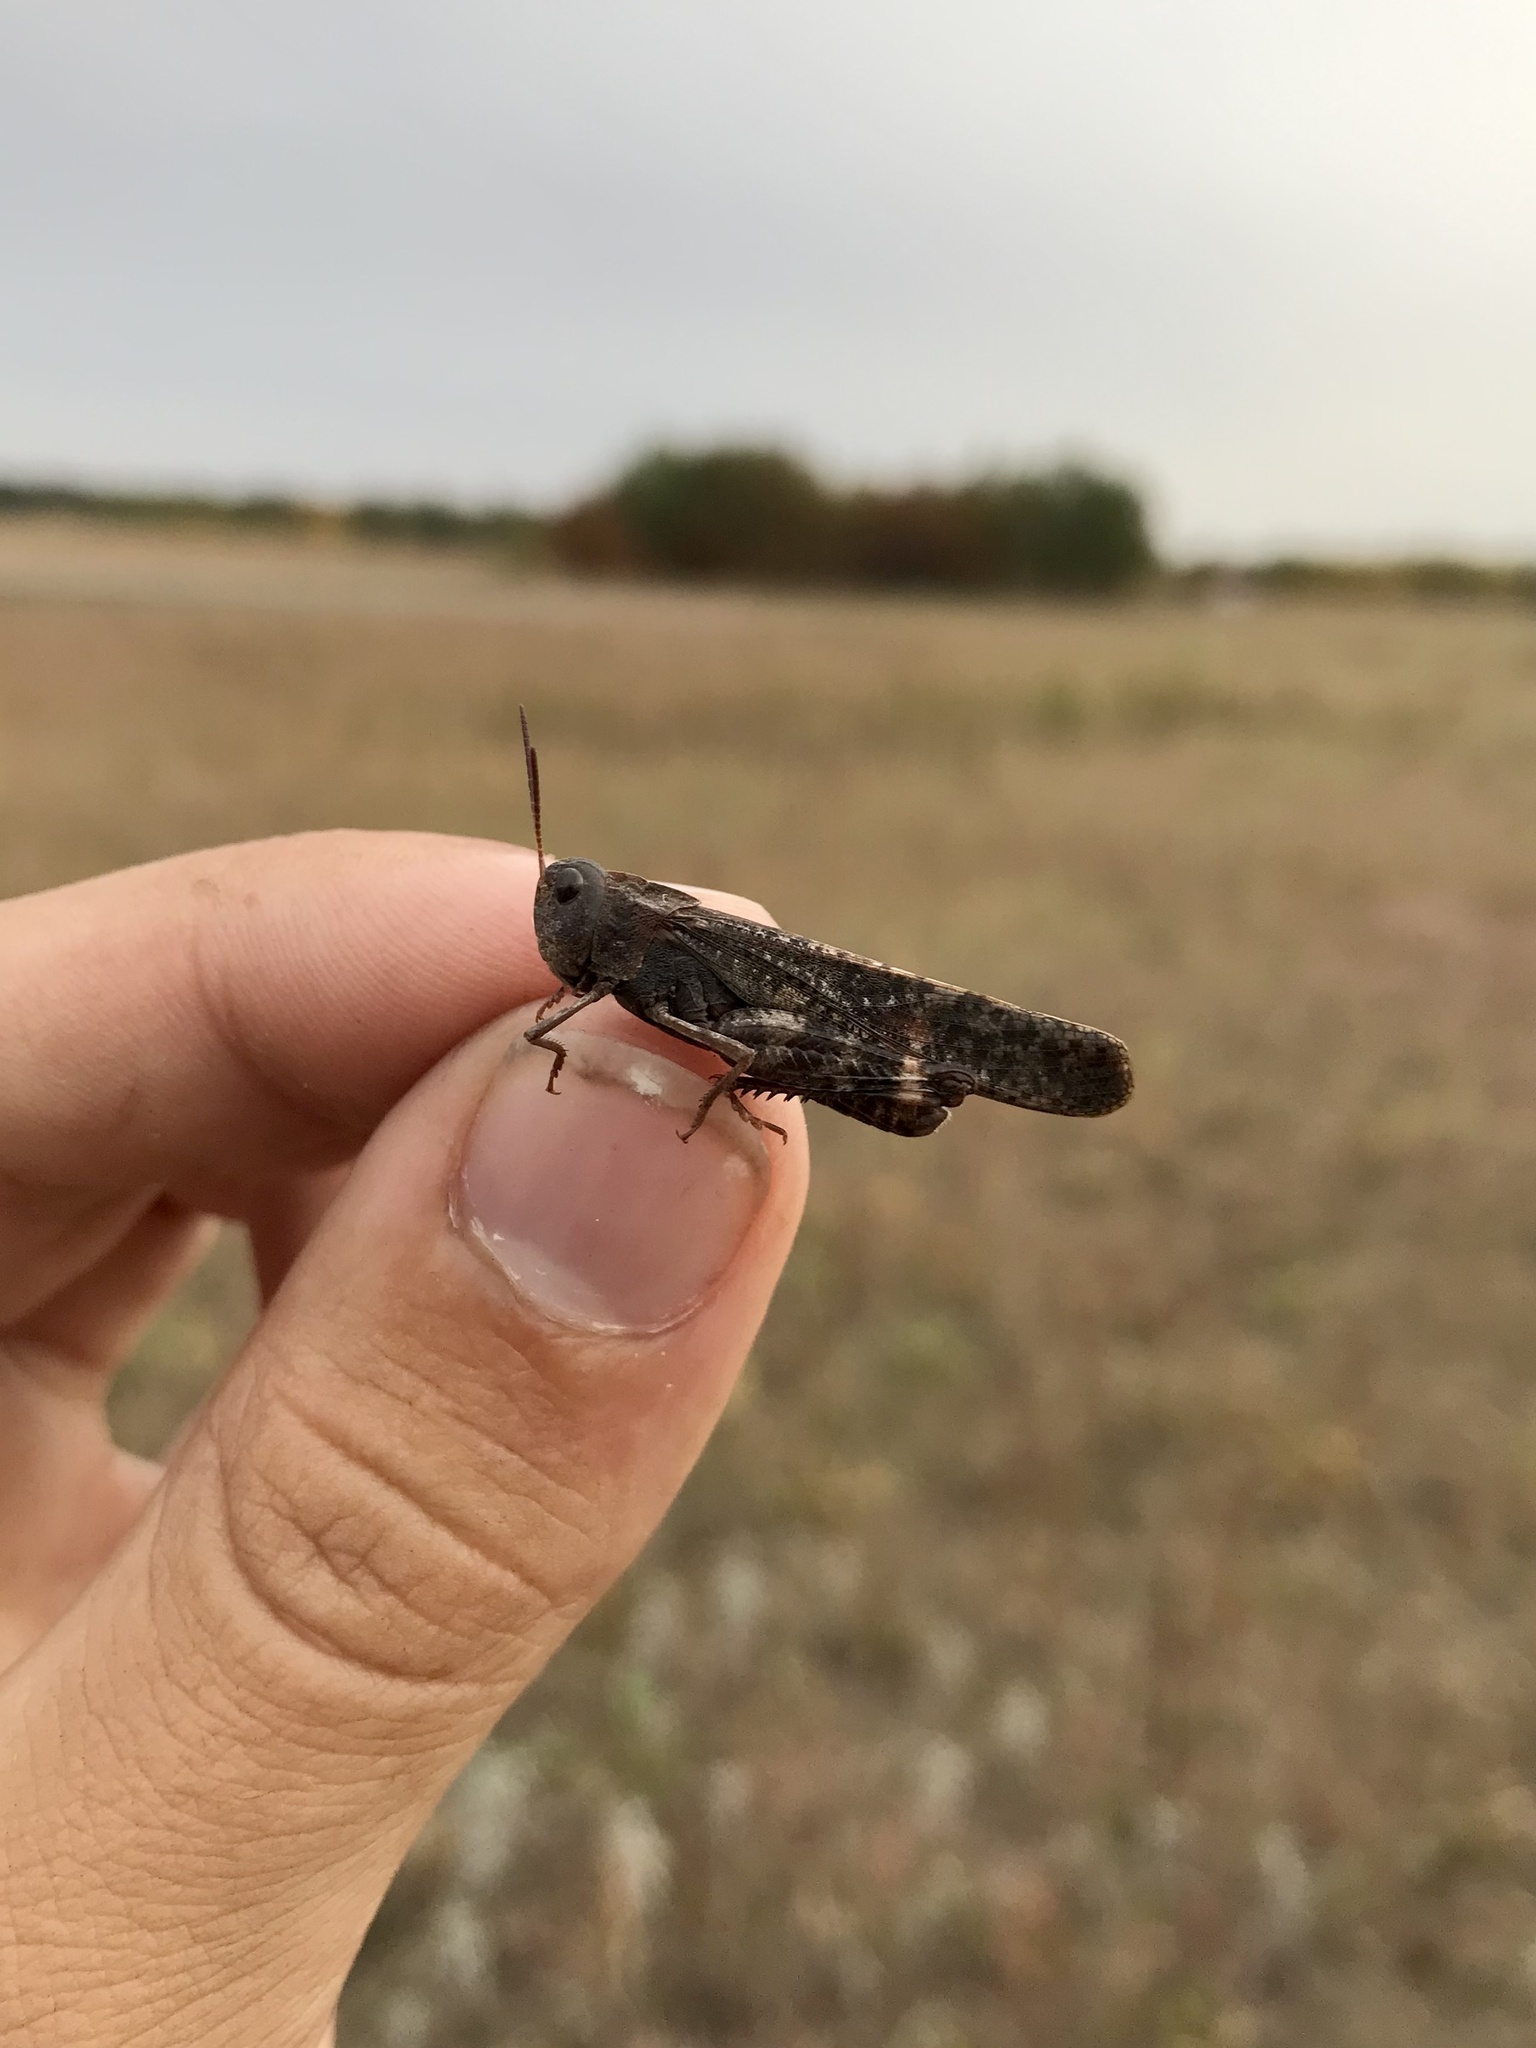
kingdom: Animalia
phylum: Arthropoda
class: Insecta
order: Orthoptera
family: Acrididae
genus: Arphia
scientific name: Arphia pseudo-nietana
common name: Red-winged grasshopper
